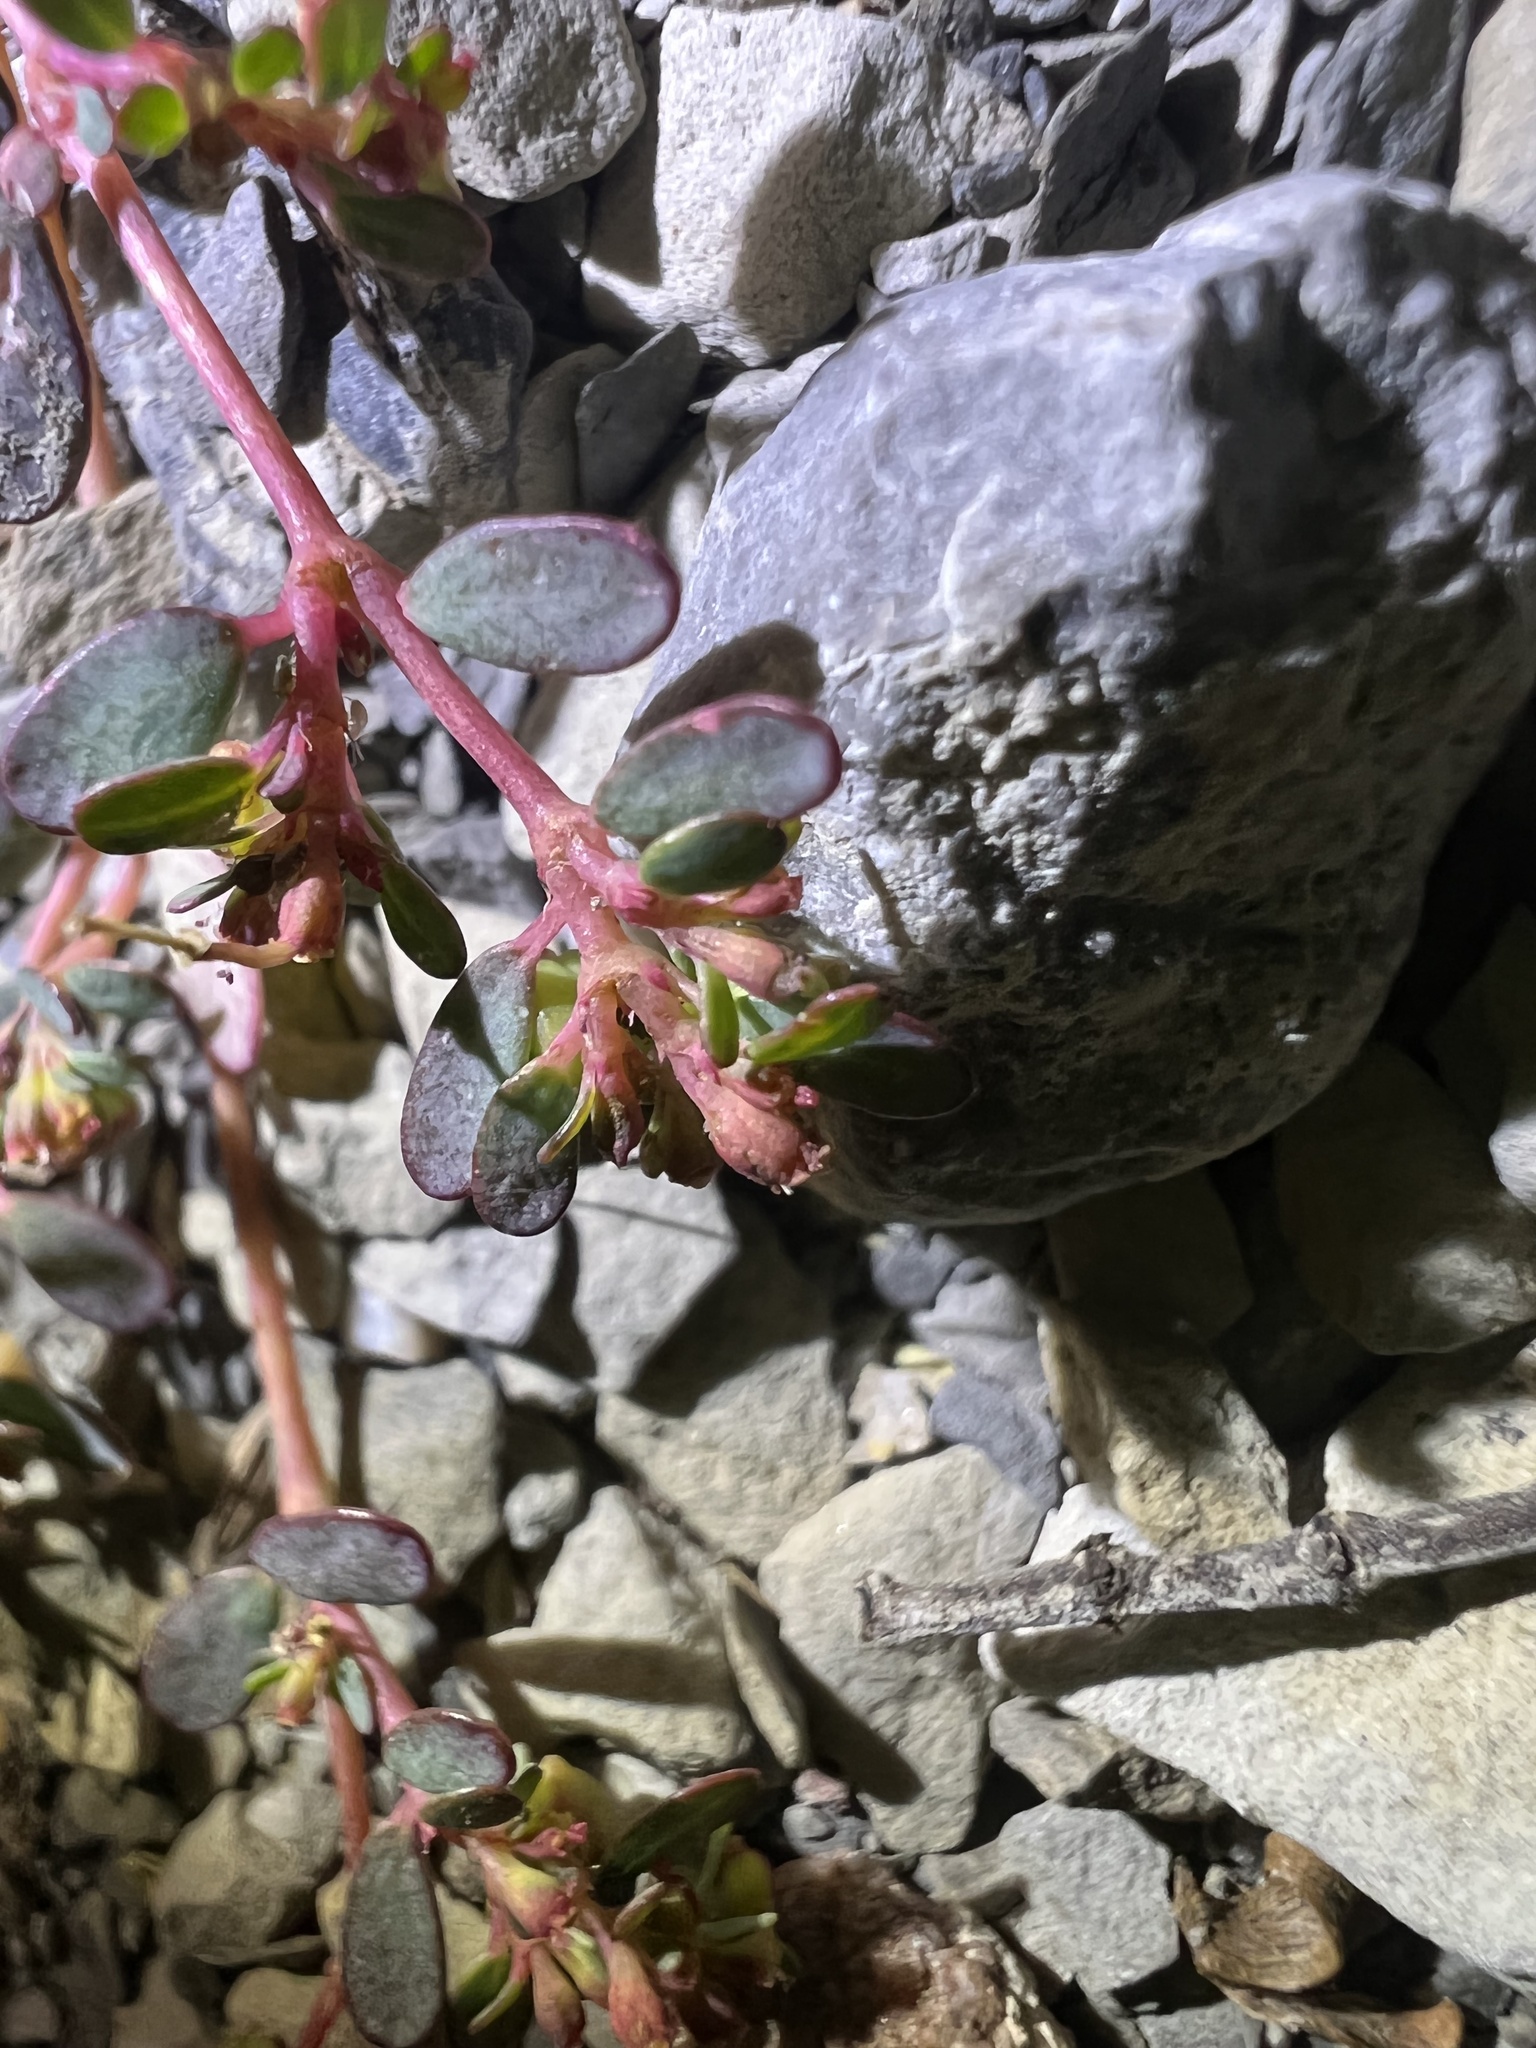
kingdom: Plantae
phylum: Tracheophyta
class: Magnoliopsida
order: Malpighiales
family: Euphorbiaceae
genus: Euphorbia
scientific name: Euphorbia cryptorubra
